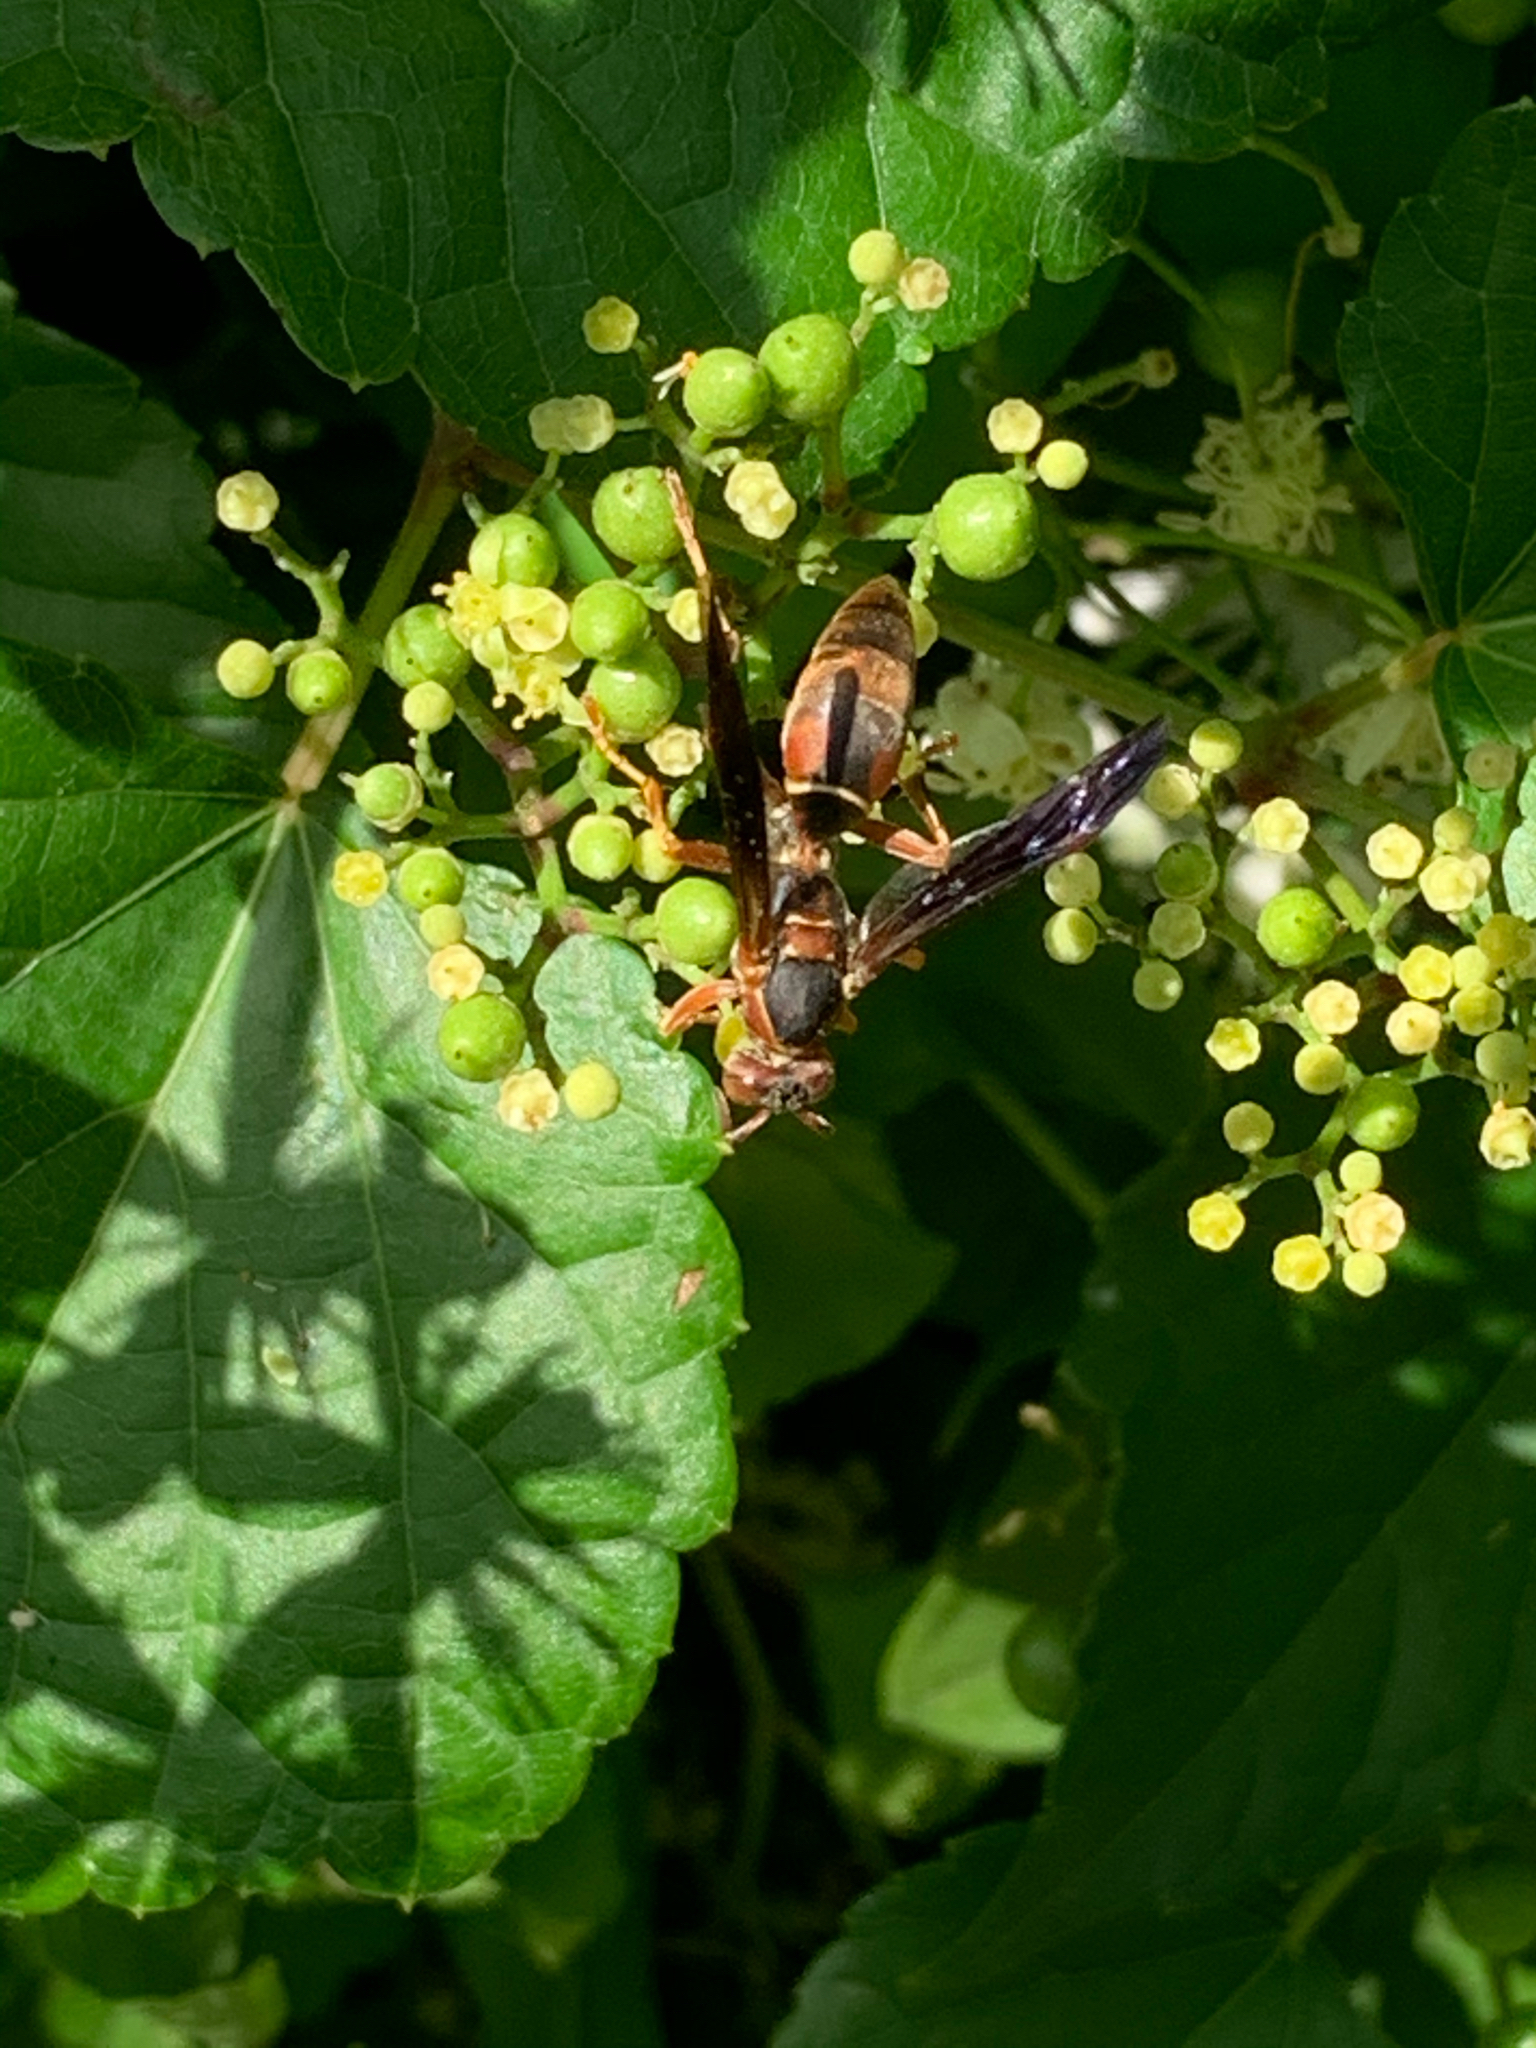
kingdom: Animalia
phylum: Arthropoda
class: Insecta
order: Hymenoptera
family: Eumenidae
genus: Polistes
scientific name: Polistes fuscatus
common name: Dark paper wasp
